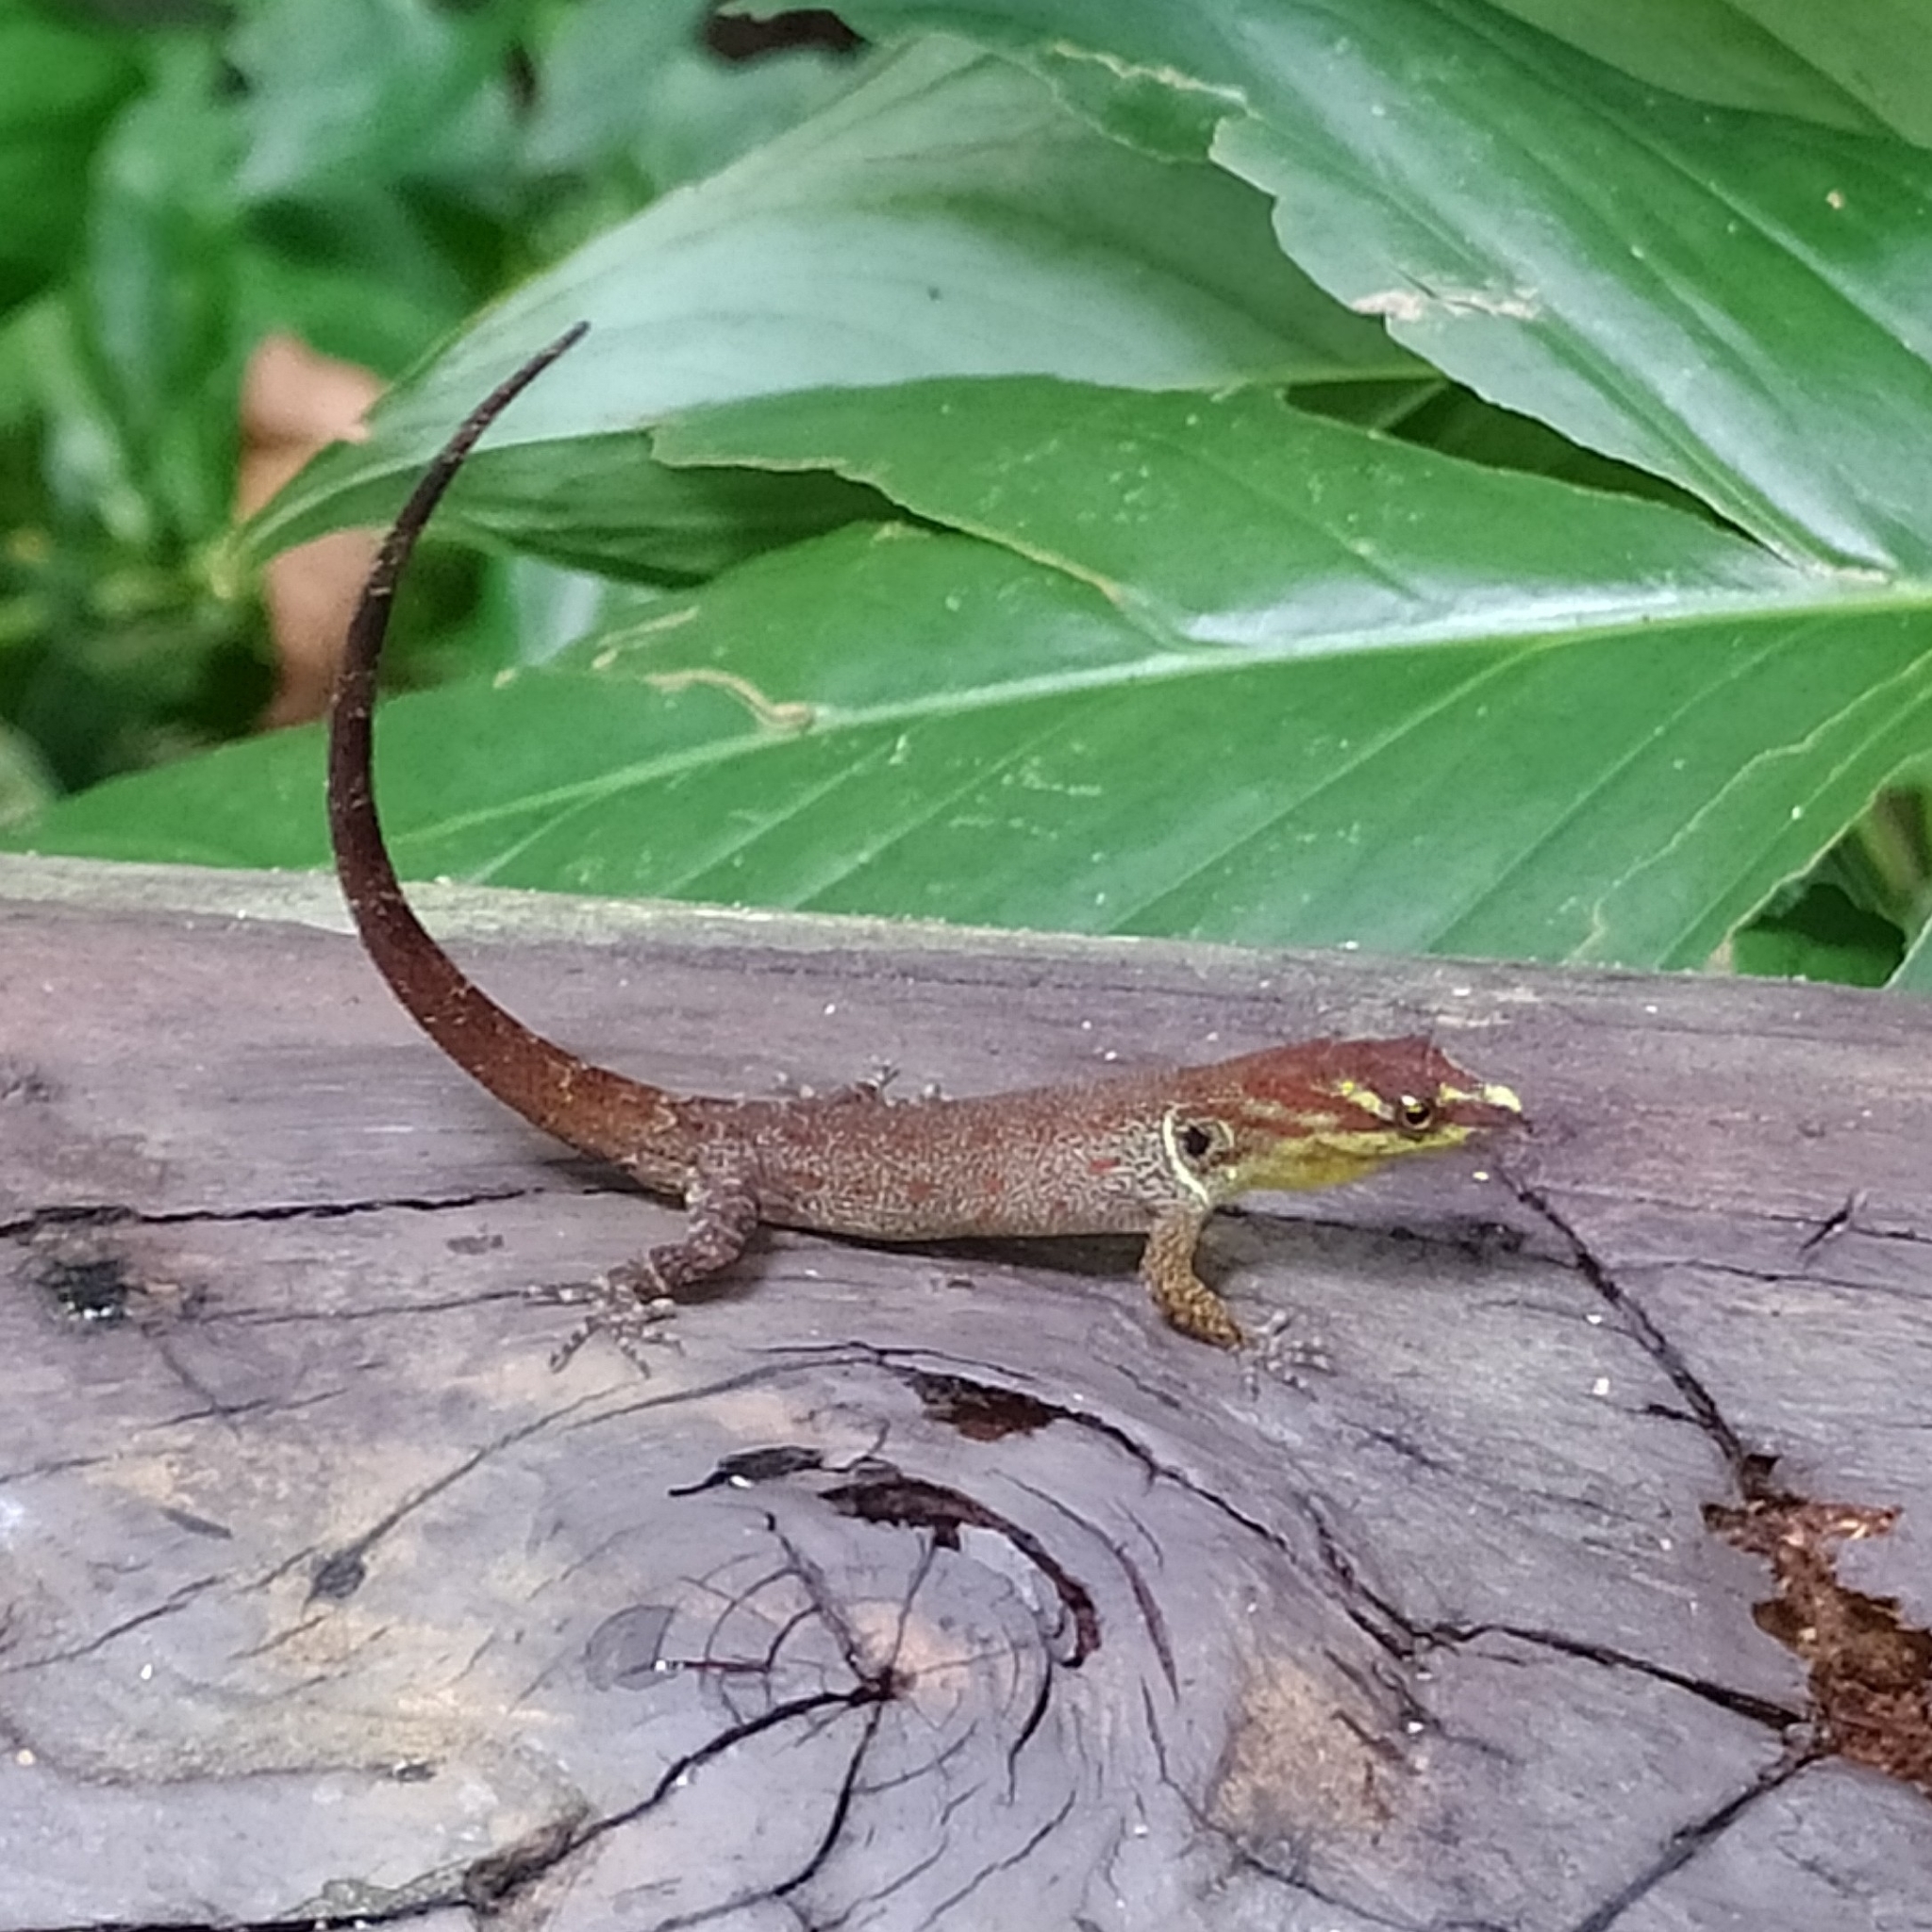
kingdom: Animalia
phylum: Chordata
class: Squamata
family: Sphaerodactylidae
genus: Gonatodes
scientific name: Gonatodes humeralis
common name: South american clawed gecko
